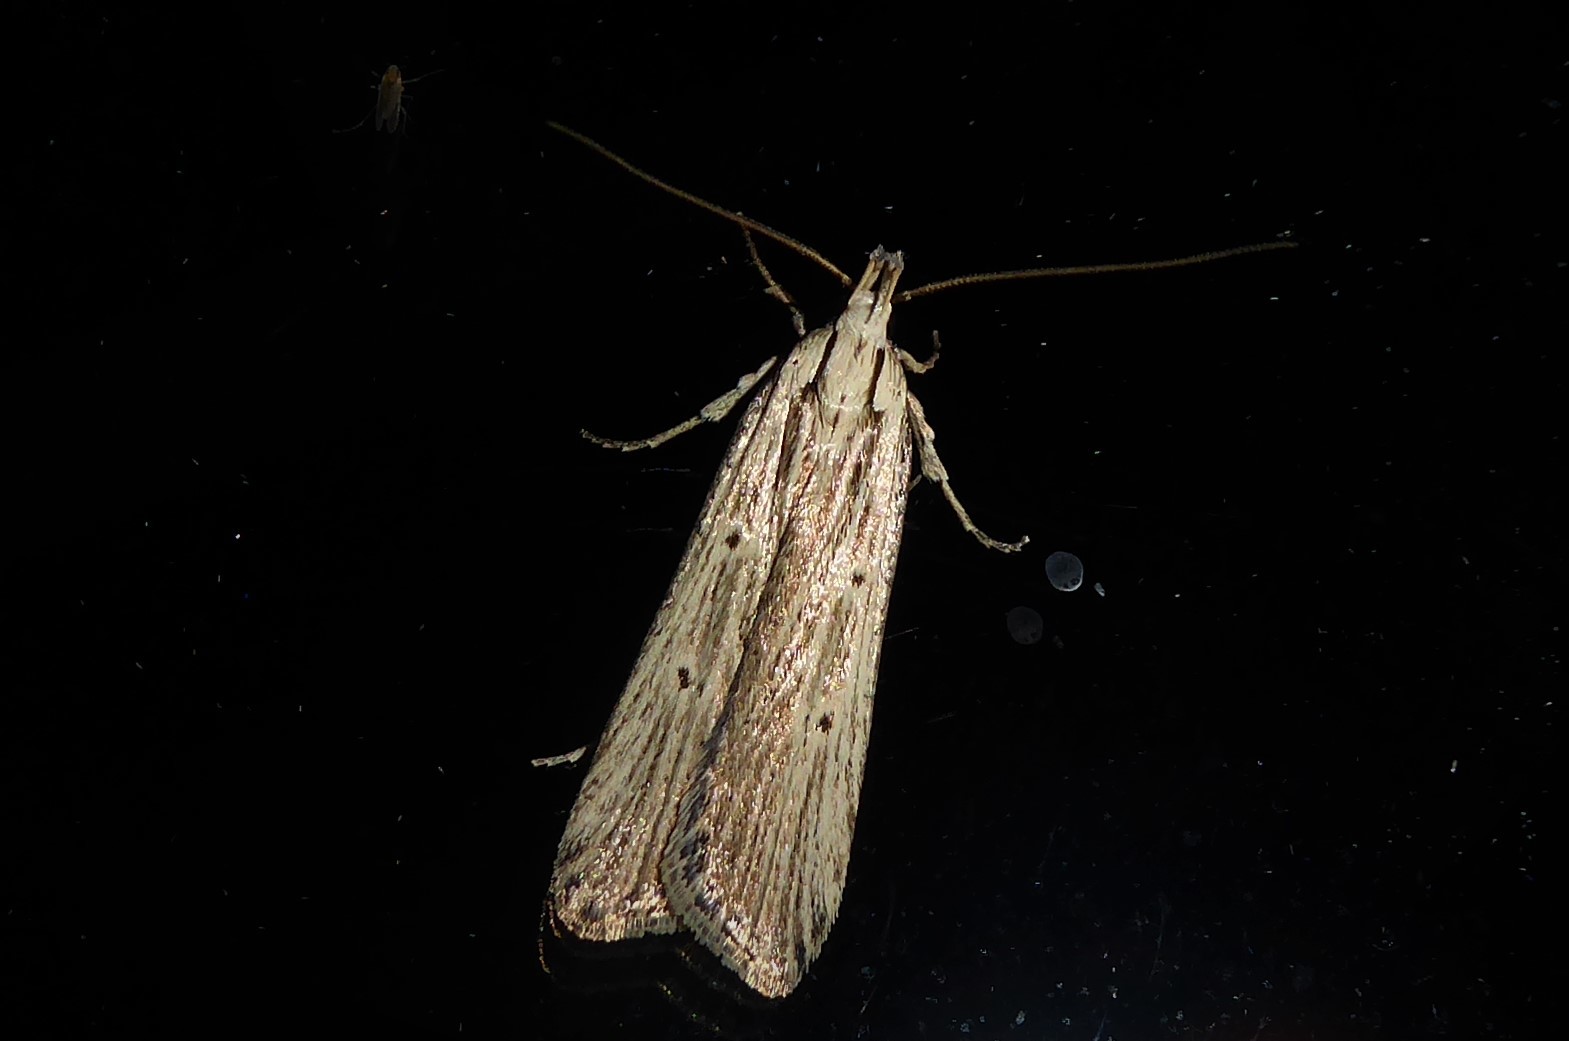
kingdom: Animalia
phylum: Arthropoda
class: Insecta
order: Lepidoptera
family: Gelechiidae
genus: Anisoplaca
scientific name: Anisoplaca ptyoptera
